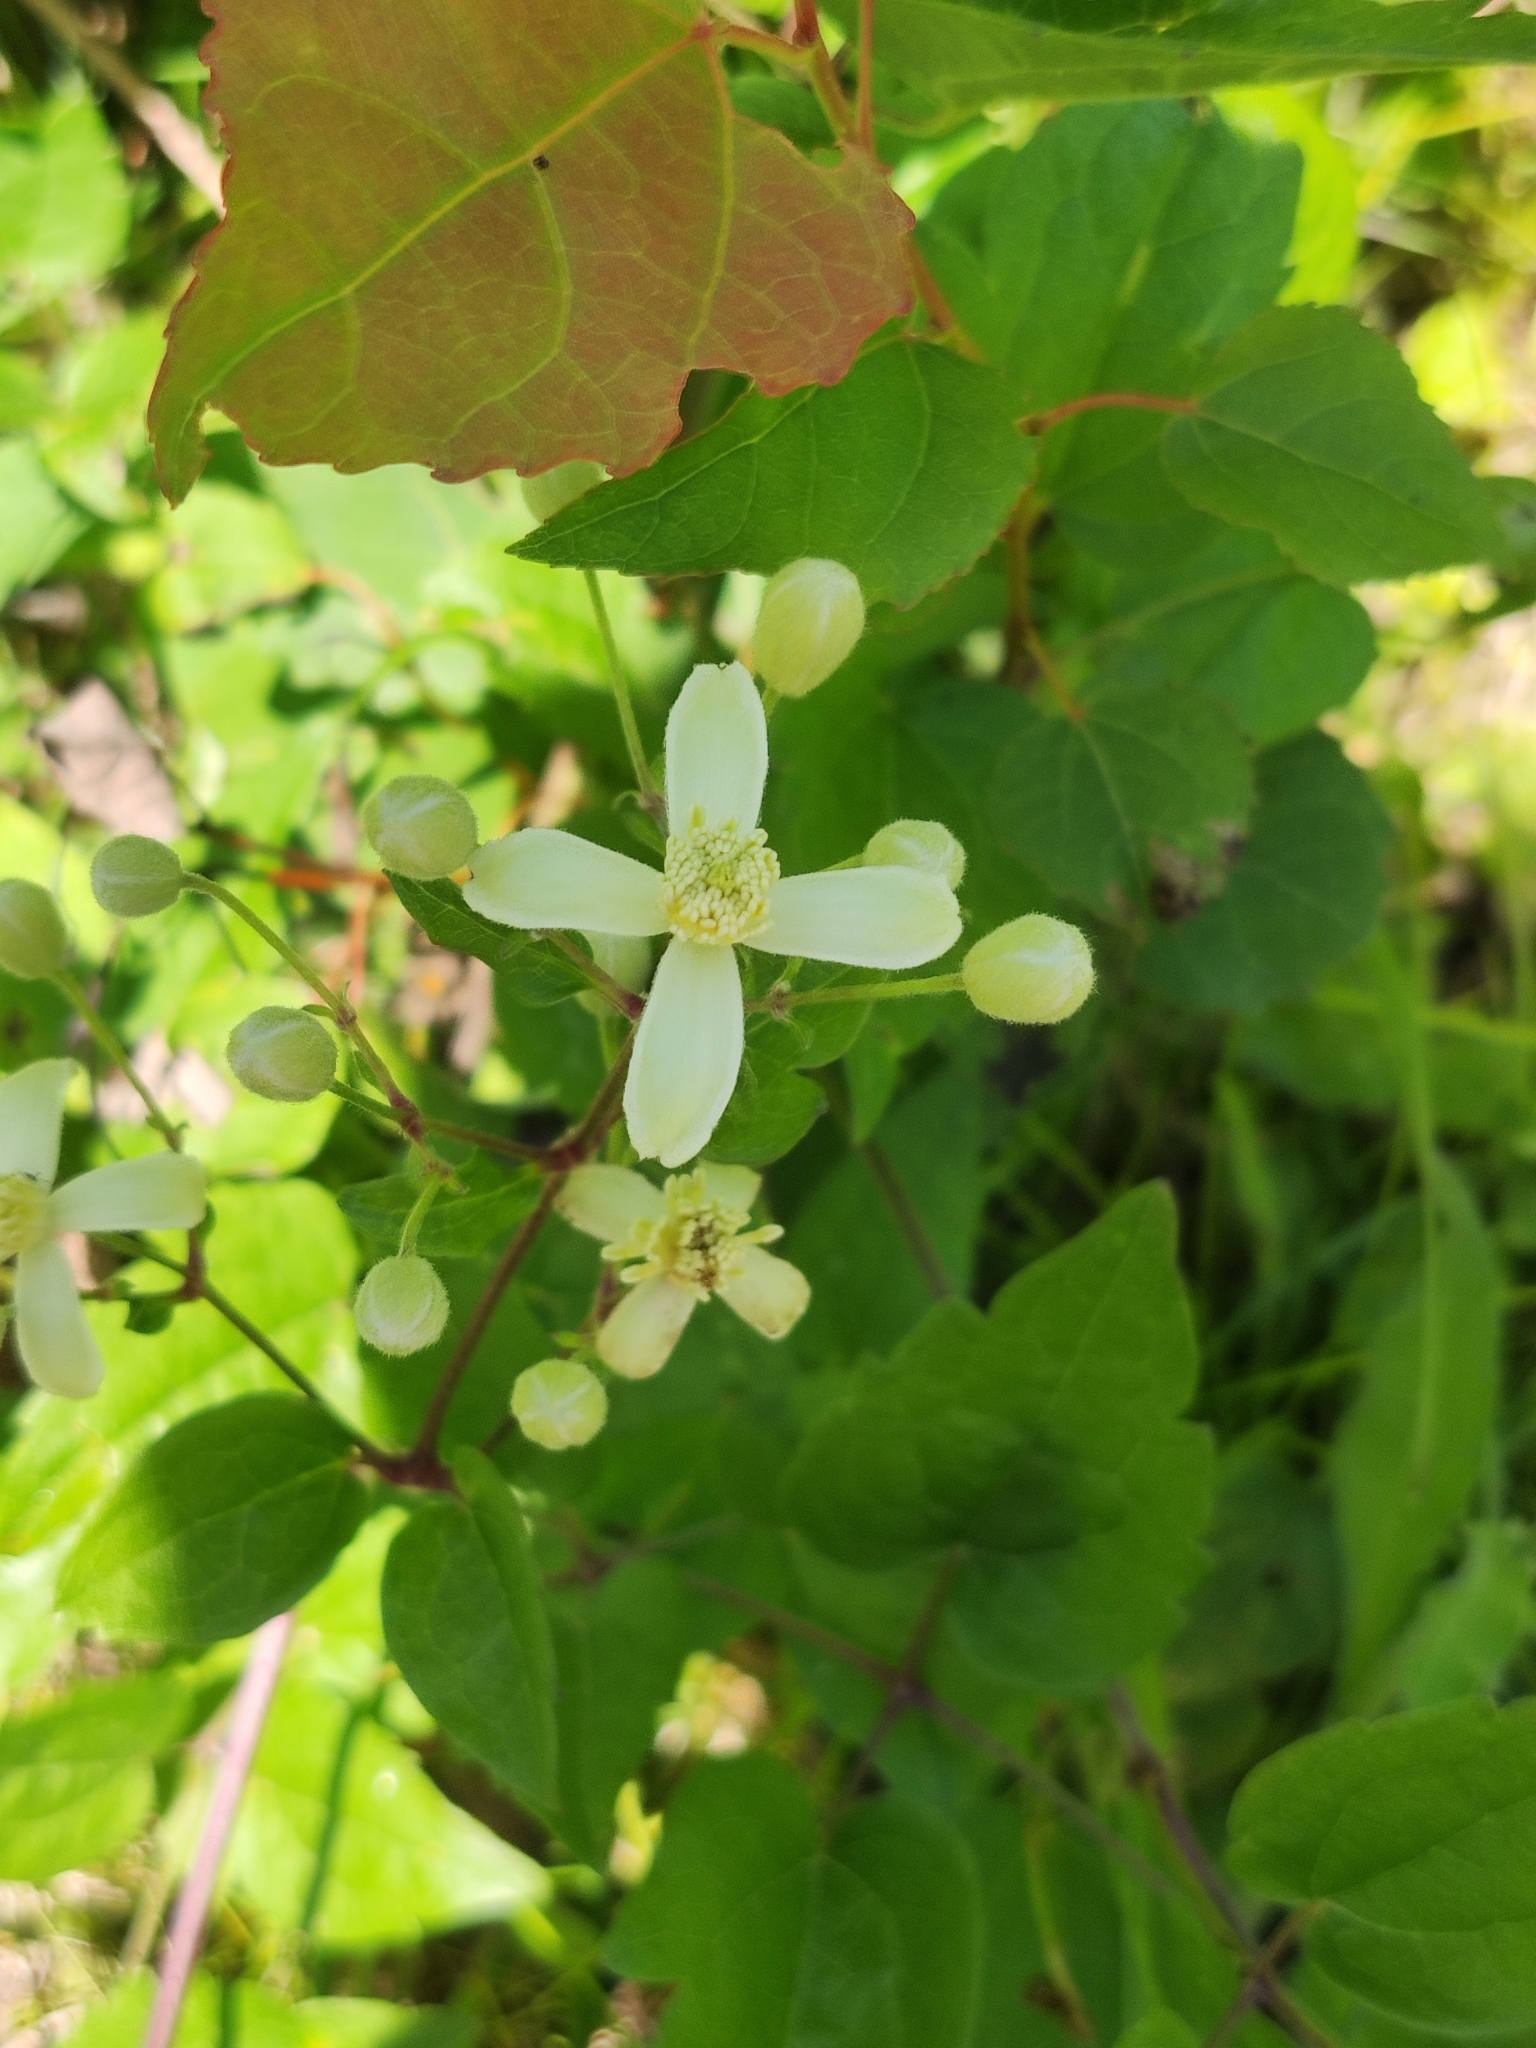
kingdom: Plantae
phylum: Tracheophyta
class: Magnoliopsida
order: Ranunculales
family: Ranunculaceae
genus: Clematis
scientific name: Clematis vitalba
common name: Evergreen clematis
